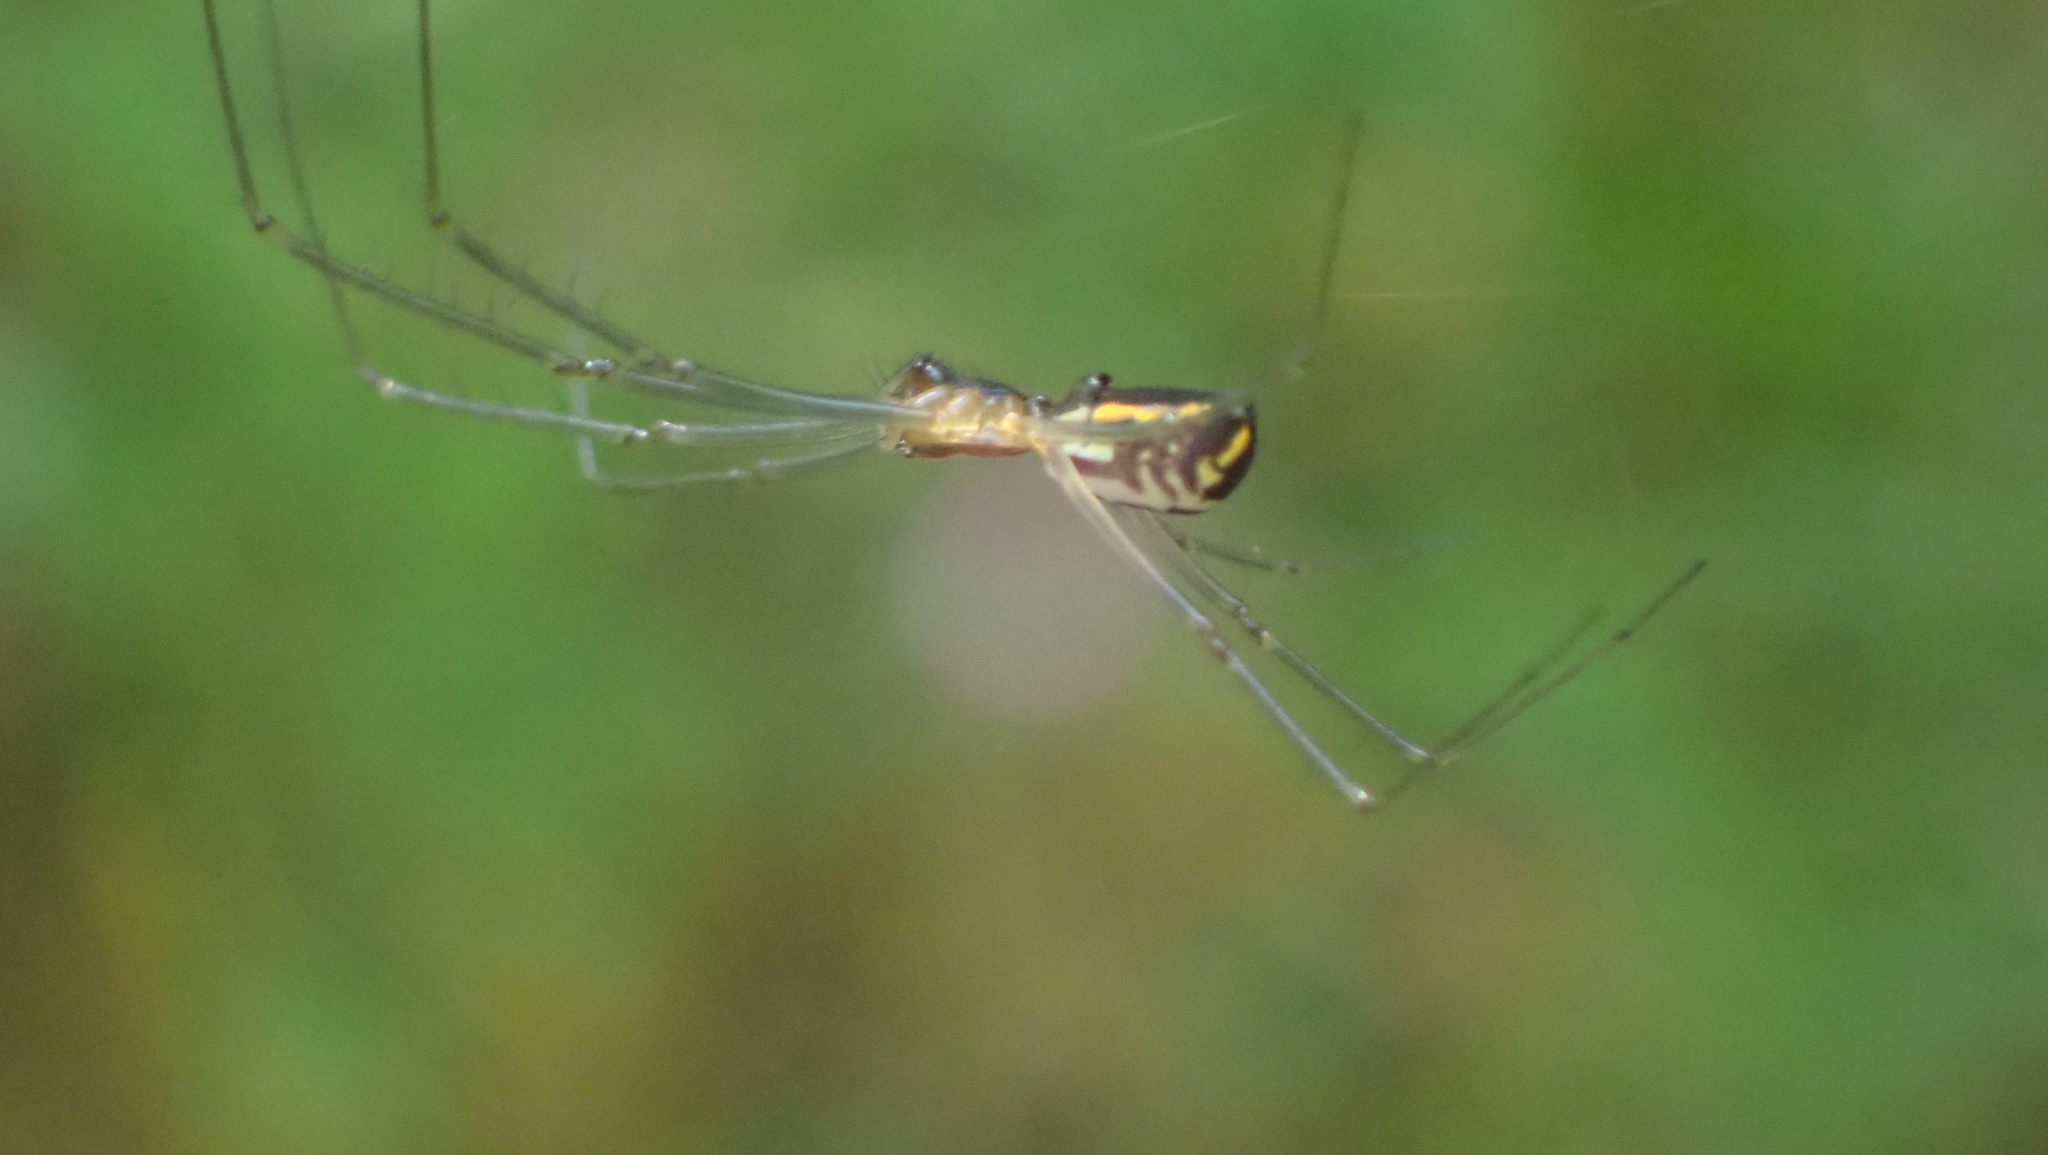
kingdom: Animalia
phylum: Arthropoda
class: Arachnida
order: Araneae
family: Linyphiidae
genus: Neriene
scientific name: Neriene radiata
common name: Filmy dome spider
